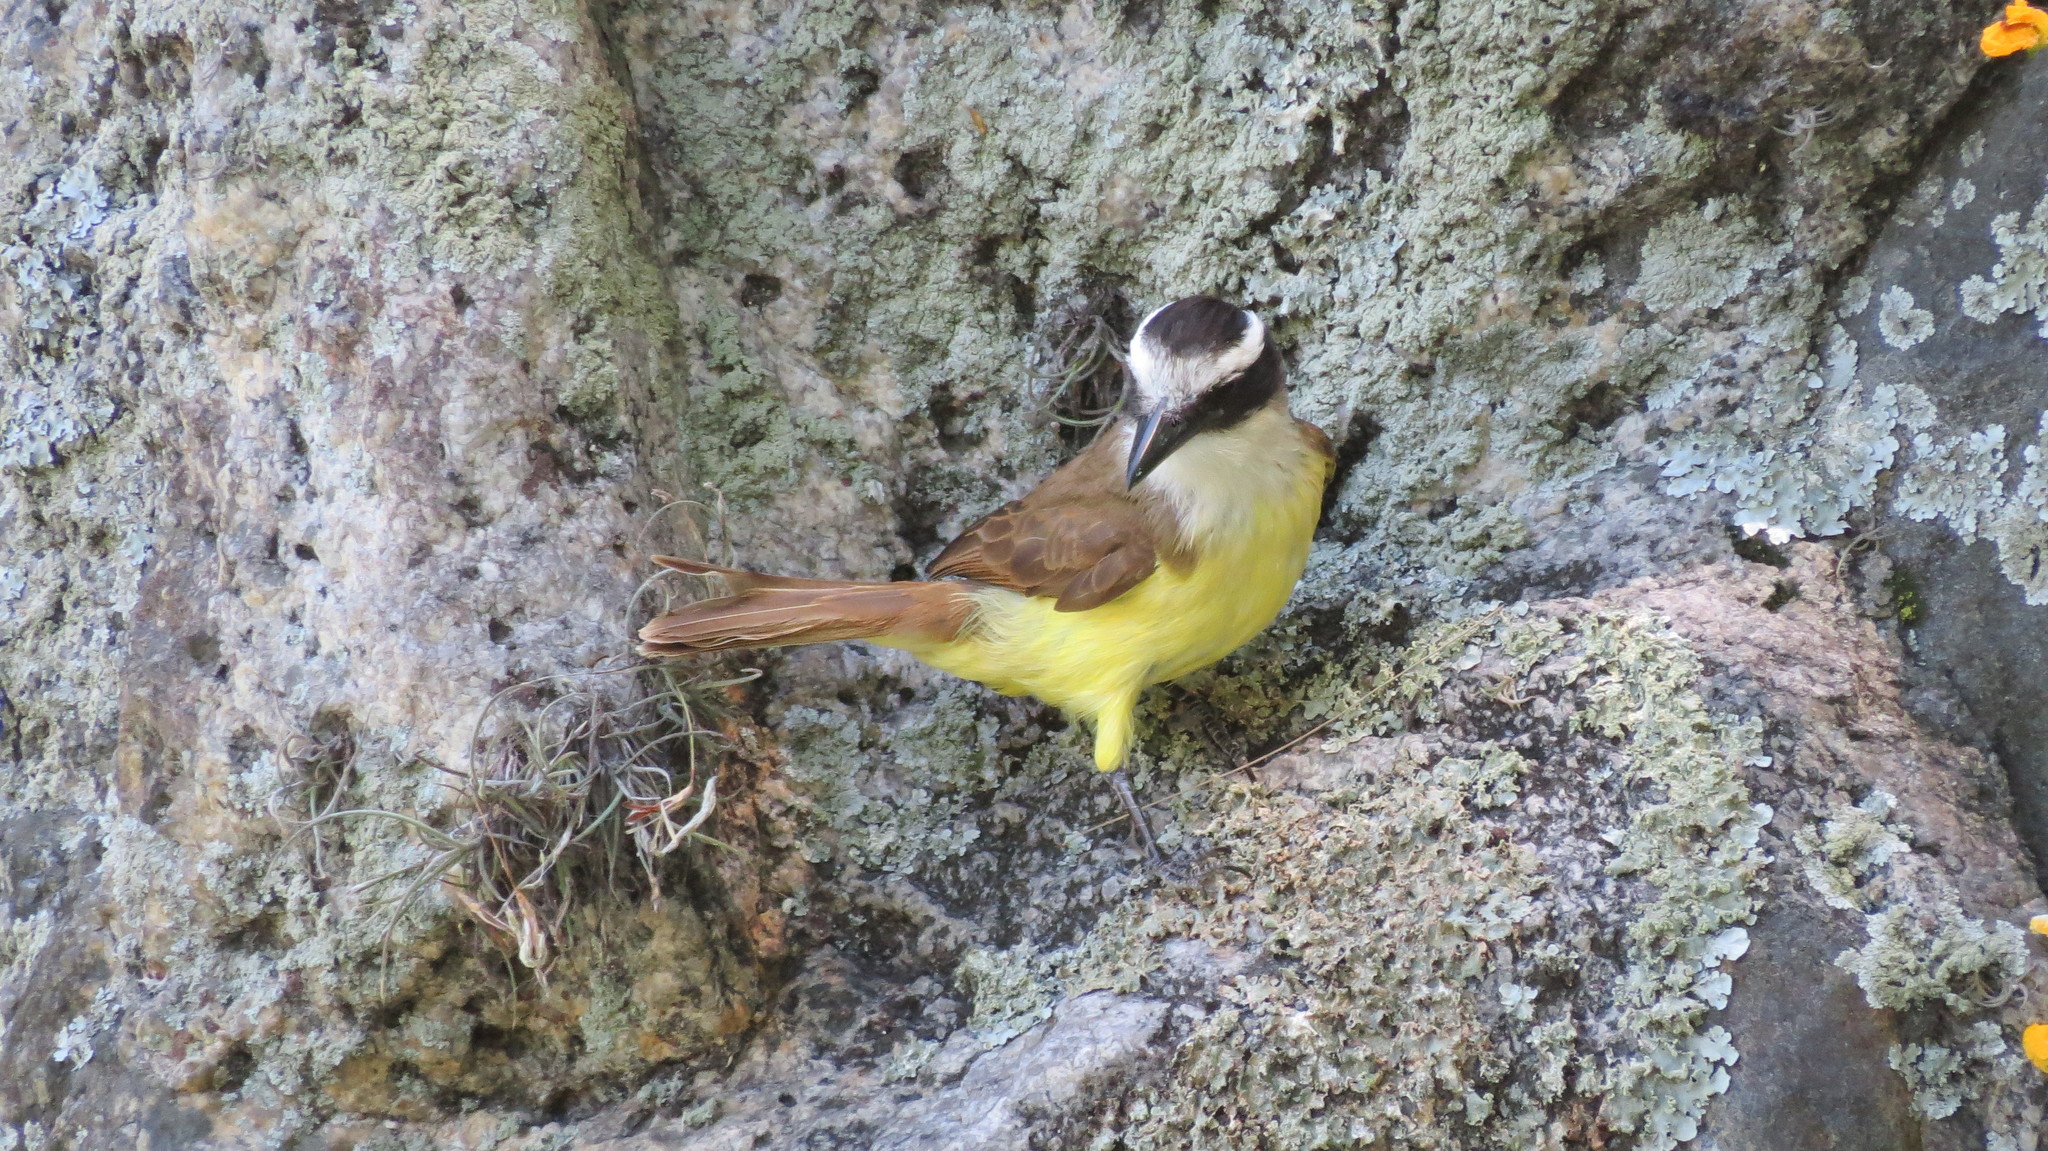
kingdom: Animalia
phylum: Chordata
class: Aves
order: Passeriformes
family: Tyrannidae
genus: Pitangus
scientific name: Pitangus sulphuratus
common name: Great kiskadee
